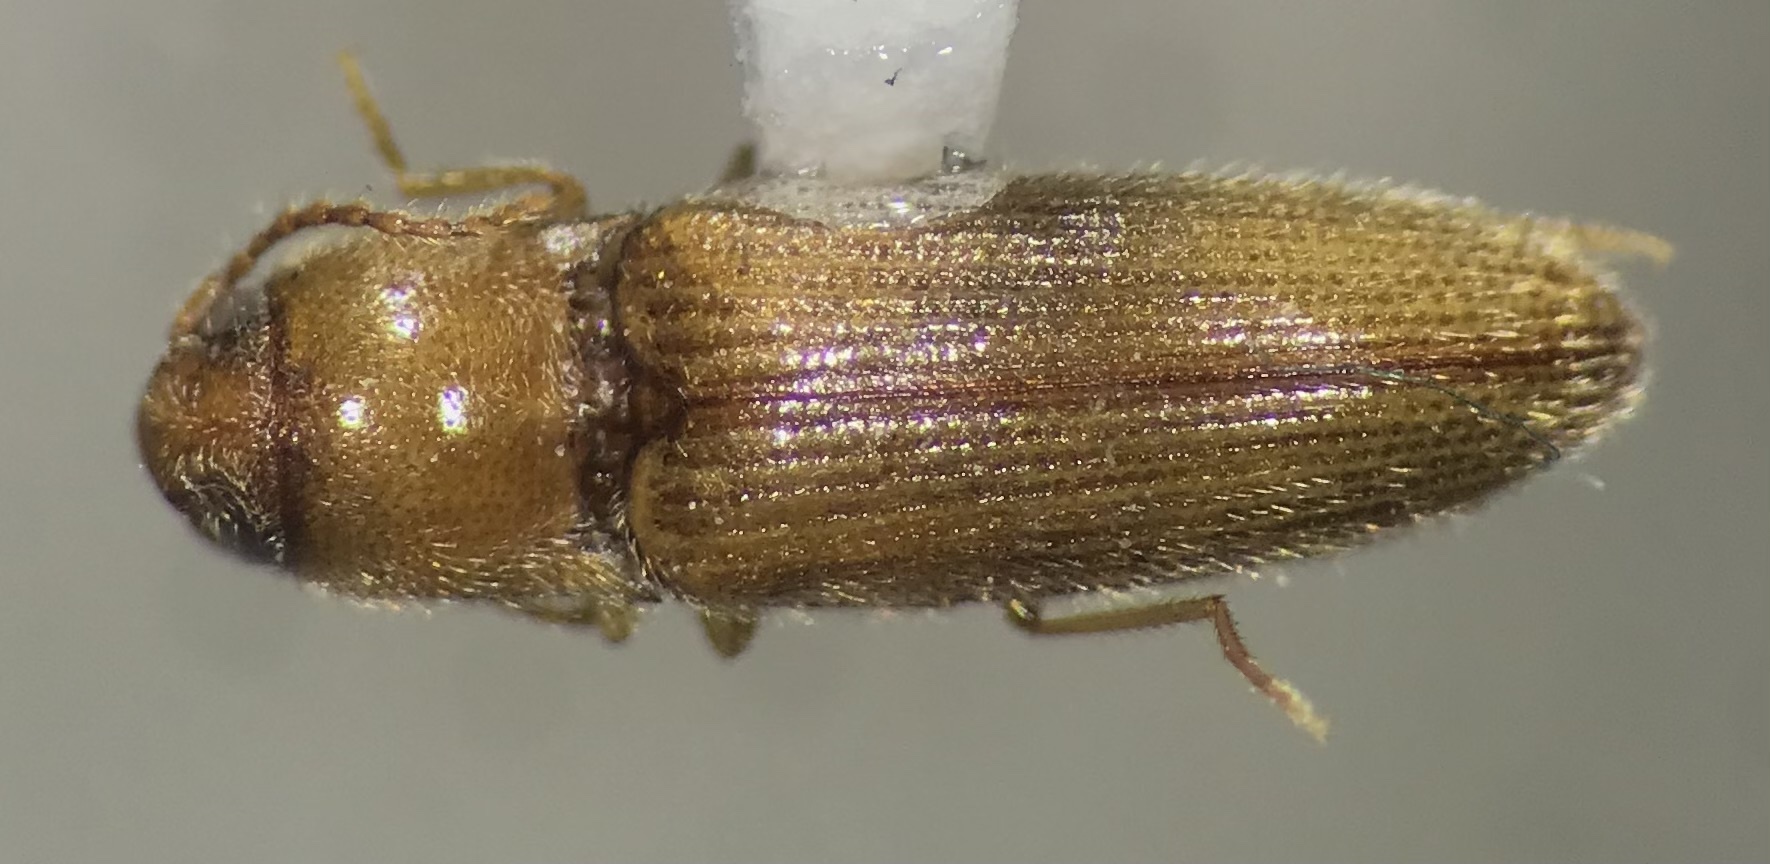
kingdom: Animalia
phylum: Arthropoda
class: Insecta
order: Coleoptera
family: Elateridae
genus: Glyphonyx
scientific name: Glyphonyx testaceus
